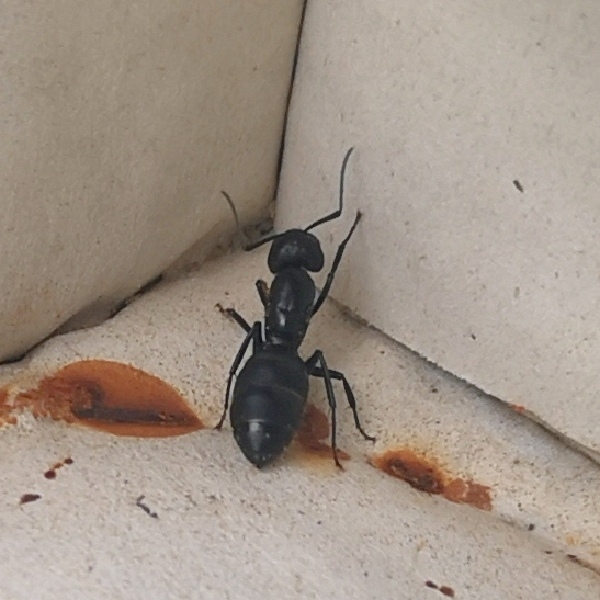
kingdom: Animalia
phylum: Arthropoda
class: Insecta
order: Hymenoptera
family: Formicidae
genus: Camponotus
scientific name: Camponotus vagus
